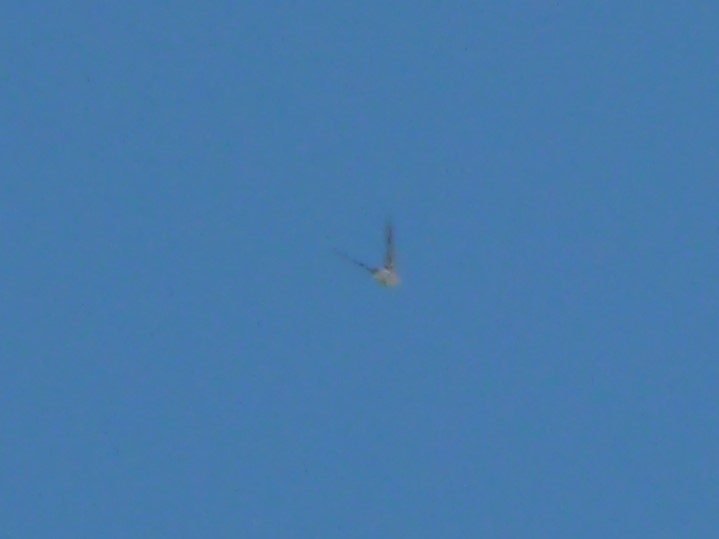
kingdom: Animalia
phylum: Chordata
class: Aves
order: Passeriformes
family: Hirundinidae
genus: Tachycineta
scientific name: Tachycineta leucorrhoa
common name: White-rumped swallow
